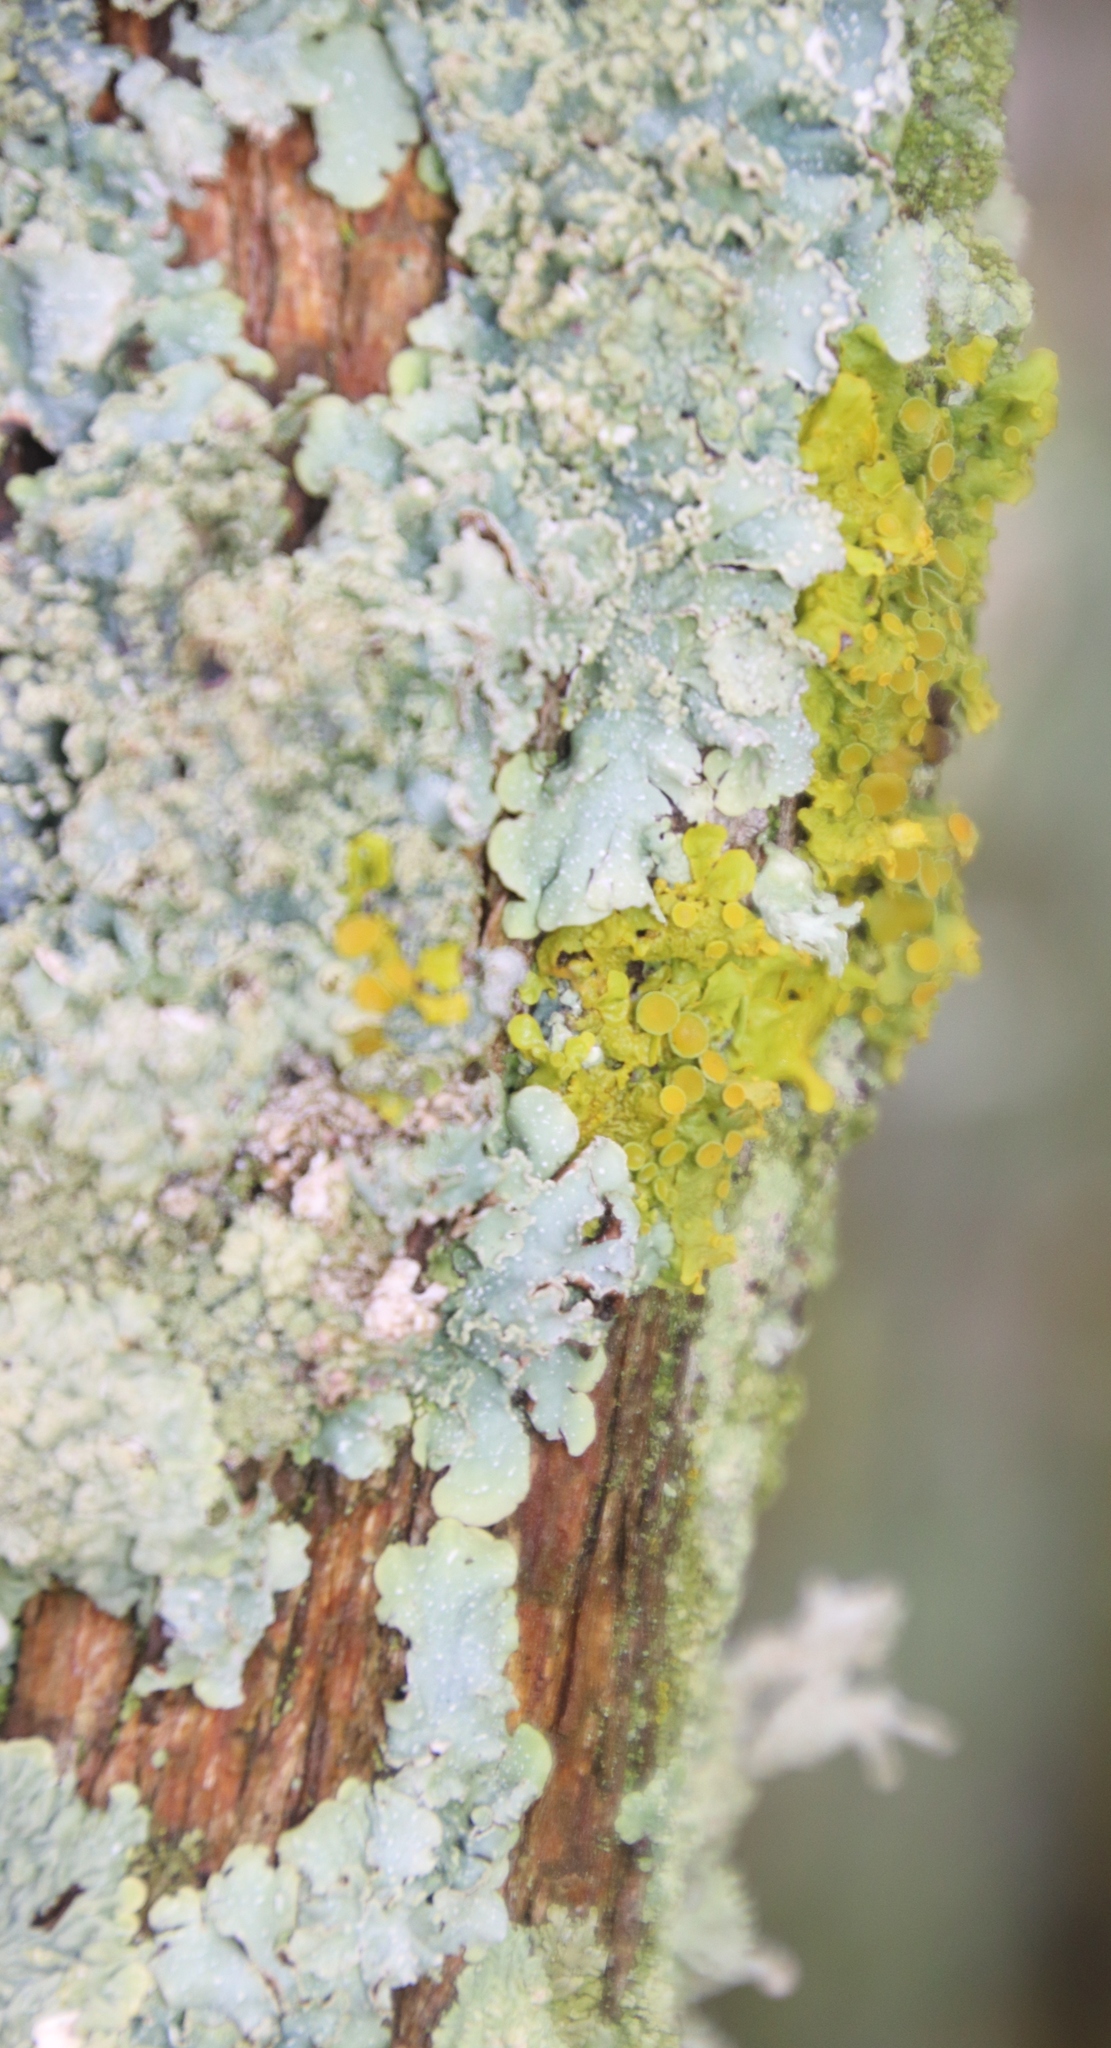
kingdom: Fungi
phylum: Ascomycota
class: Lecanoromycetes
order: Teloschistales
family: Teloschistaceae
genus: Xanthoria
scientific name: Xanthoria parietina
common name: Common orange lichen
